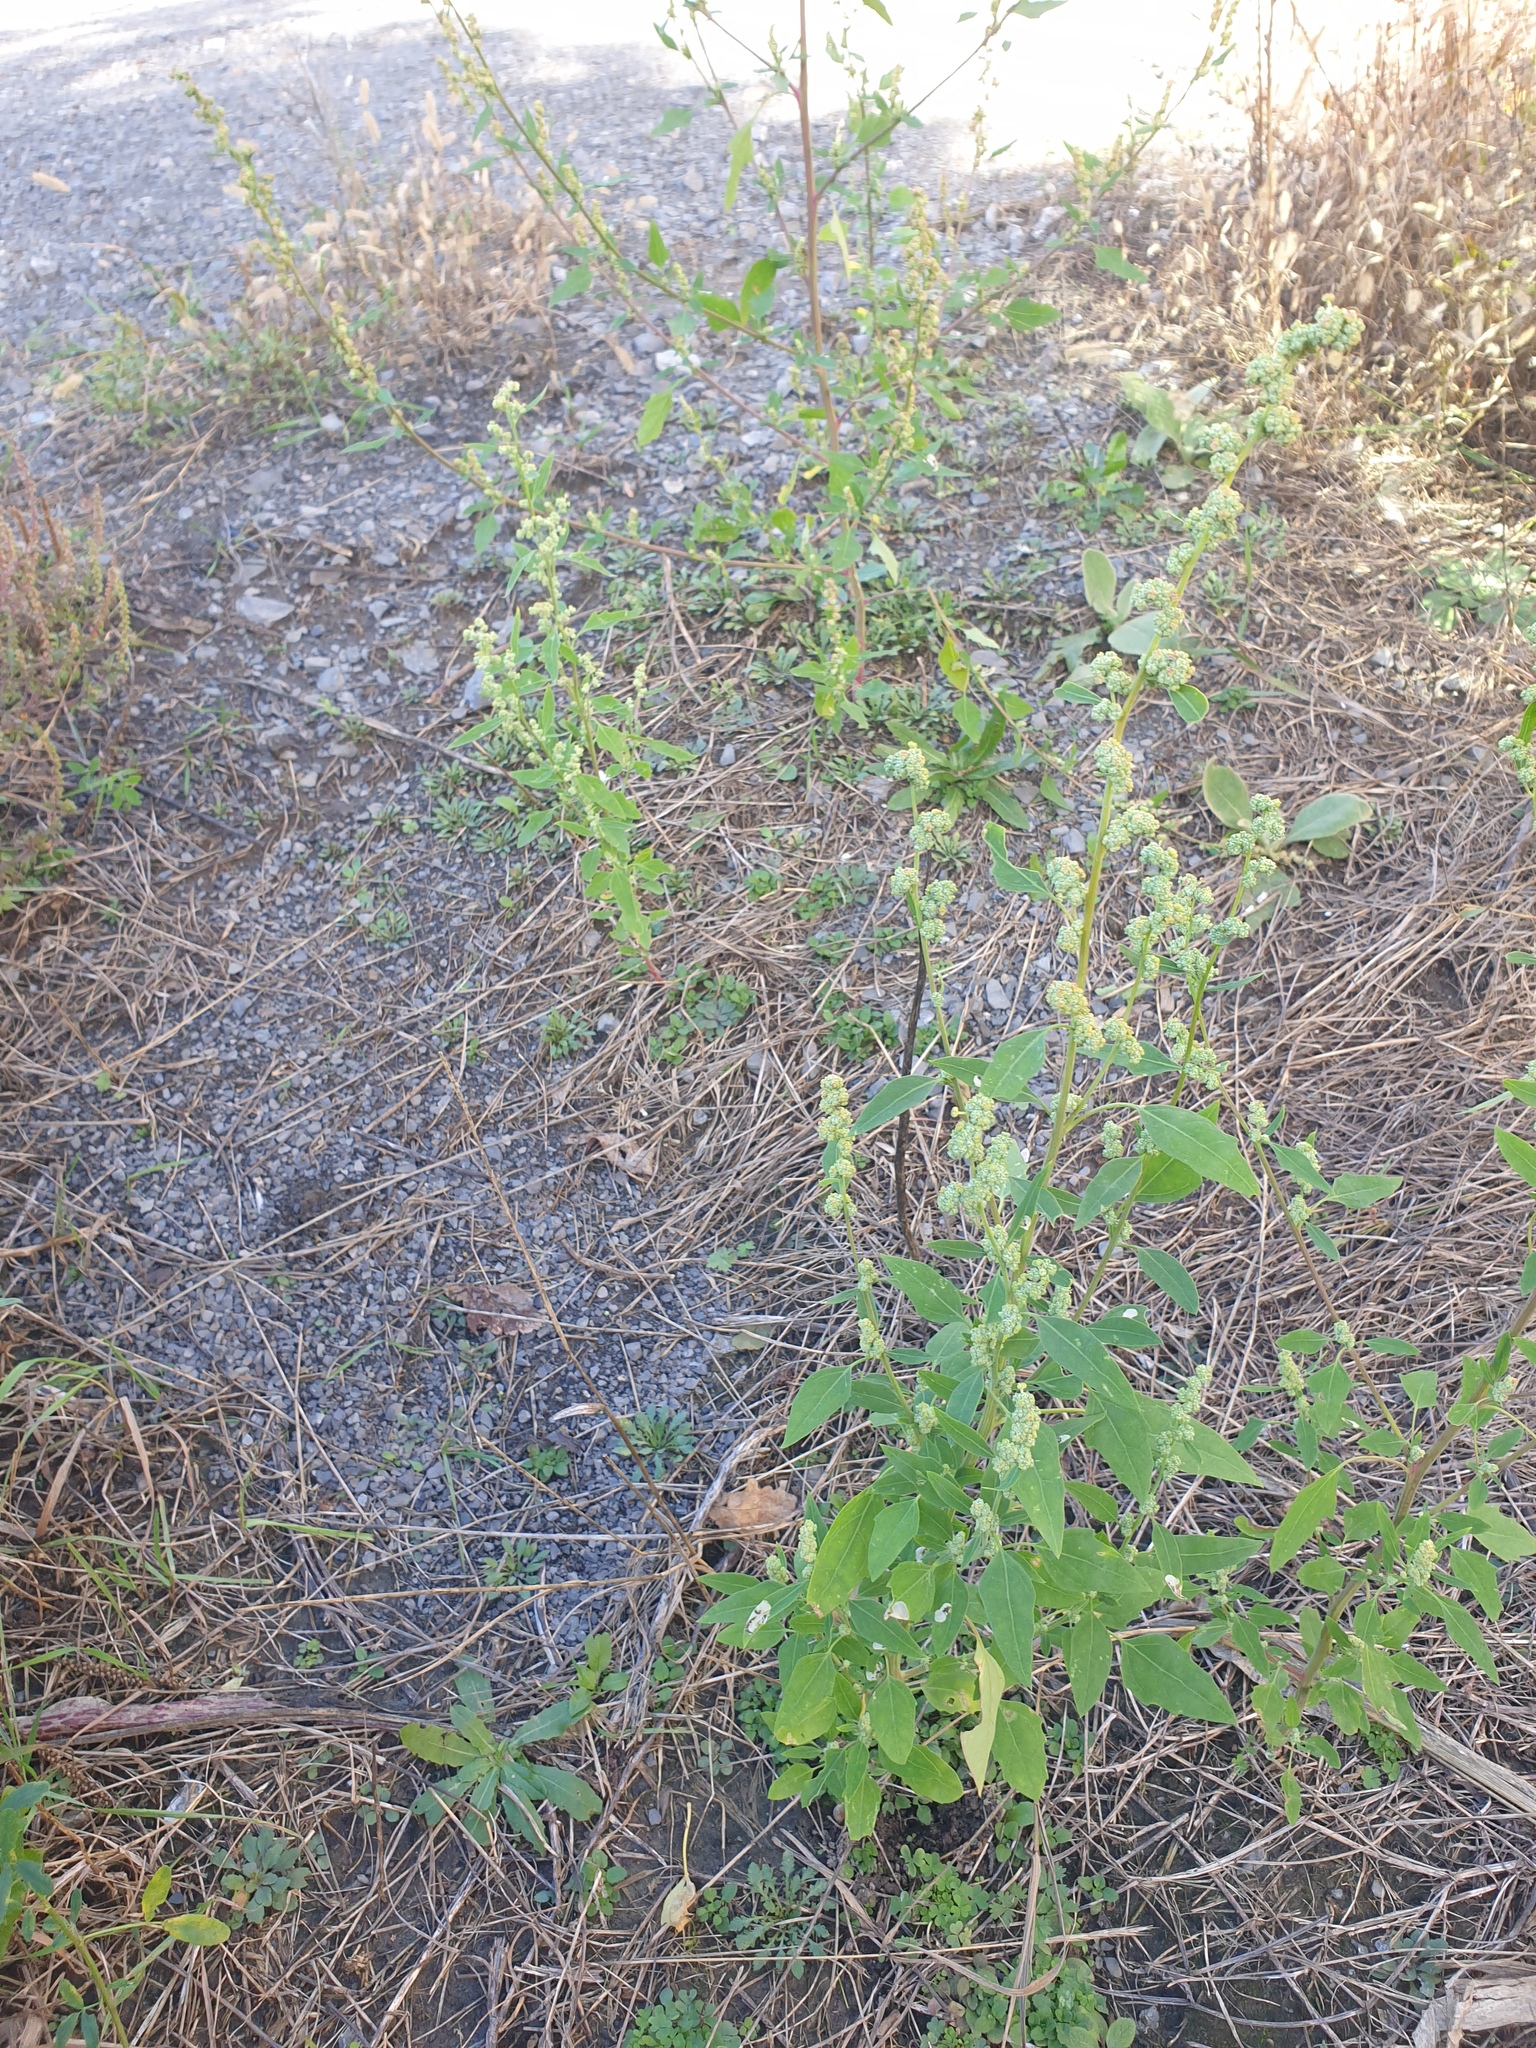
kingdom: Plantae
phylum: Tracheophyta
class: Magnoliopsida
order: Caryophyllales
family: Amaranthaceae
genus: Chenopodium
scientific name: Chenopodium album
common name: Fat-hen
